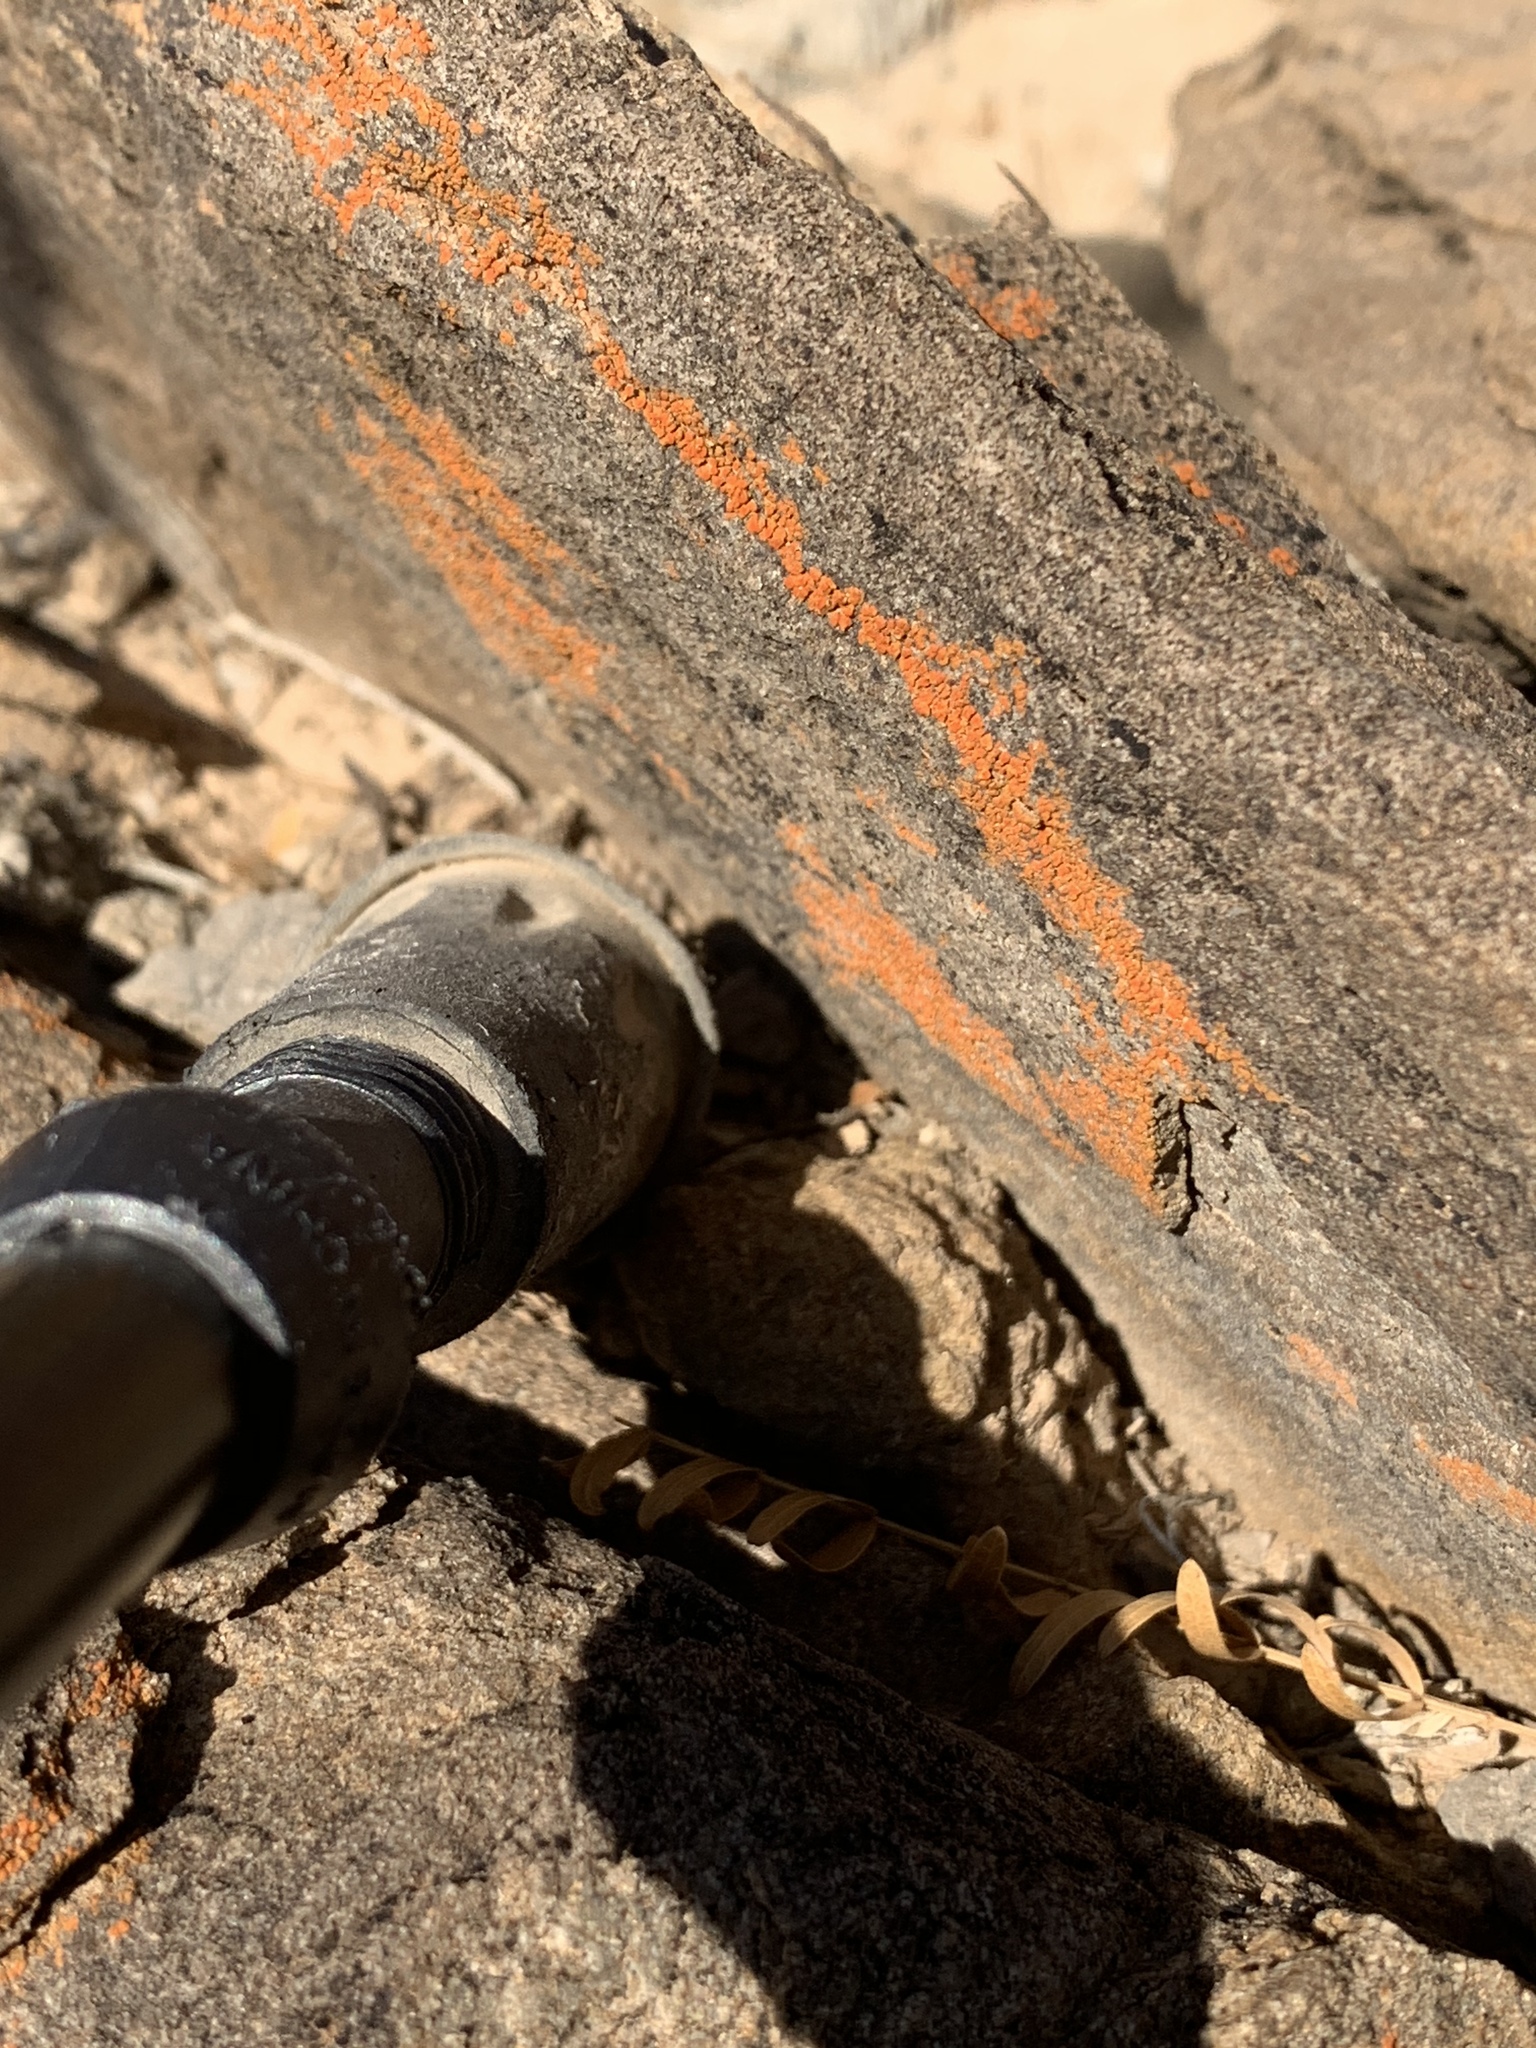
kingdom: Fungi
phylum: Ascomycota
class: Lecanoromycetes
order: Teloschistales
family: Teloschistaceae
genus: Squamulea
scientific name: Squamulea subsoluta
